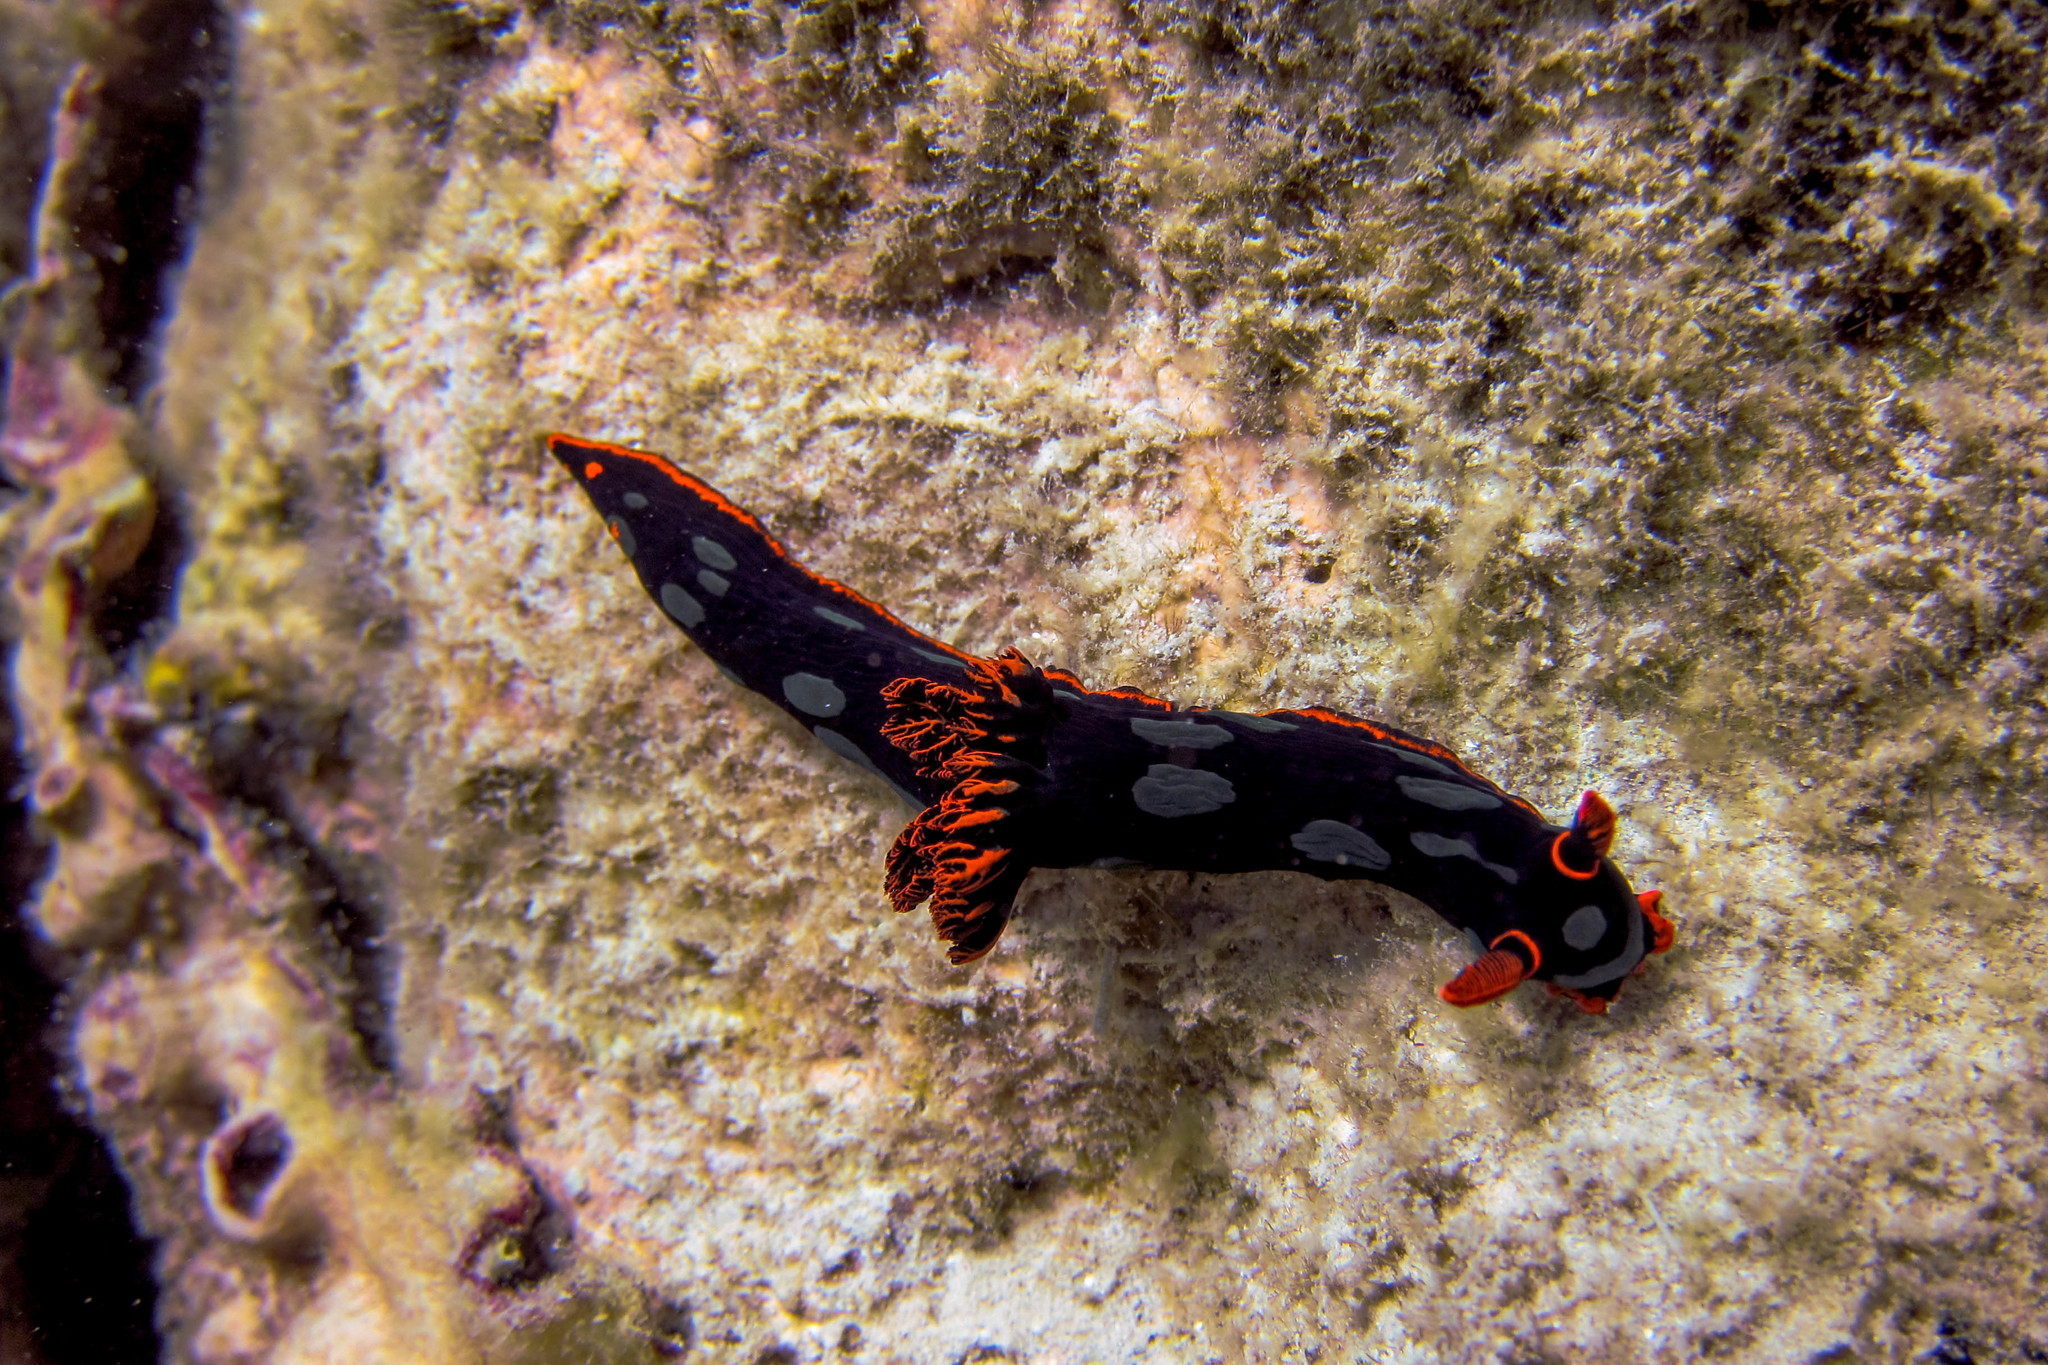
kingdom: Animalia
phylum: Mollusca
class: Gastropoda
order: Nudibranchia
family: Polyceridae
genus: Nembrotha
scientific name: Nembrotha kubaryana
